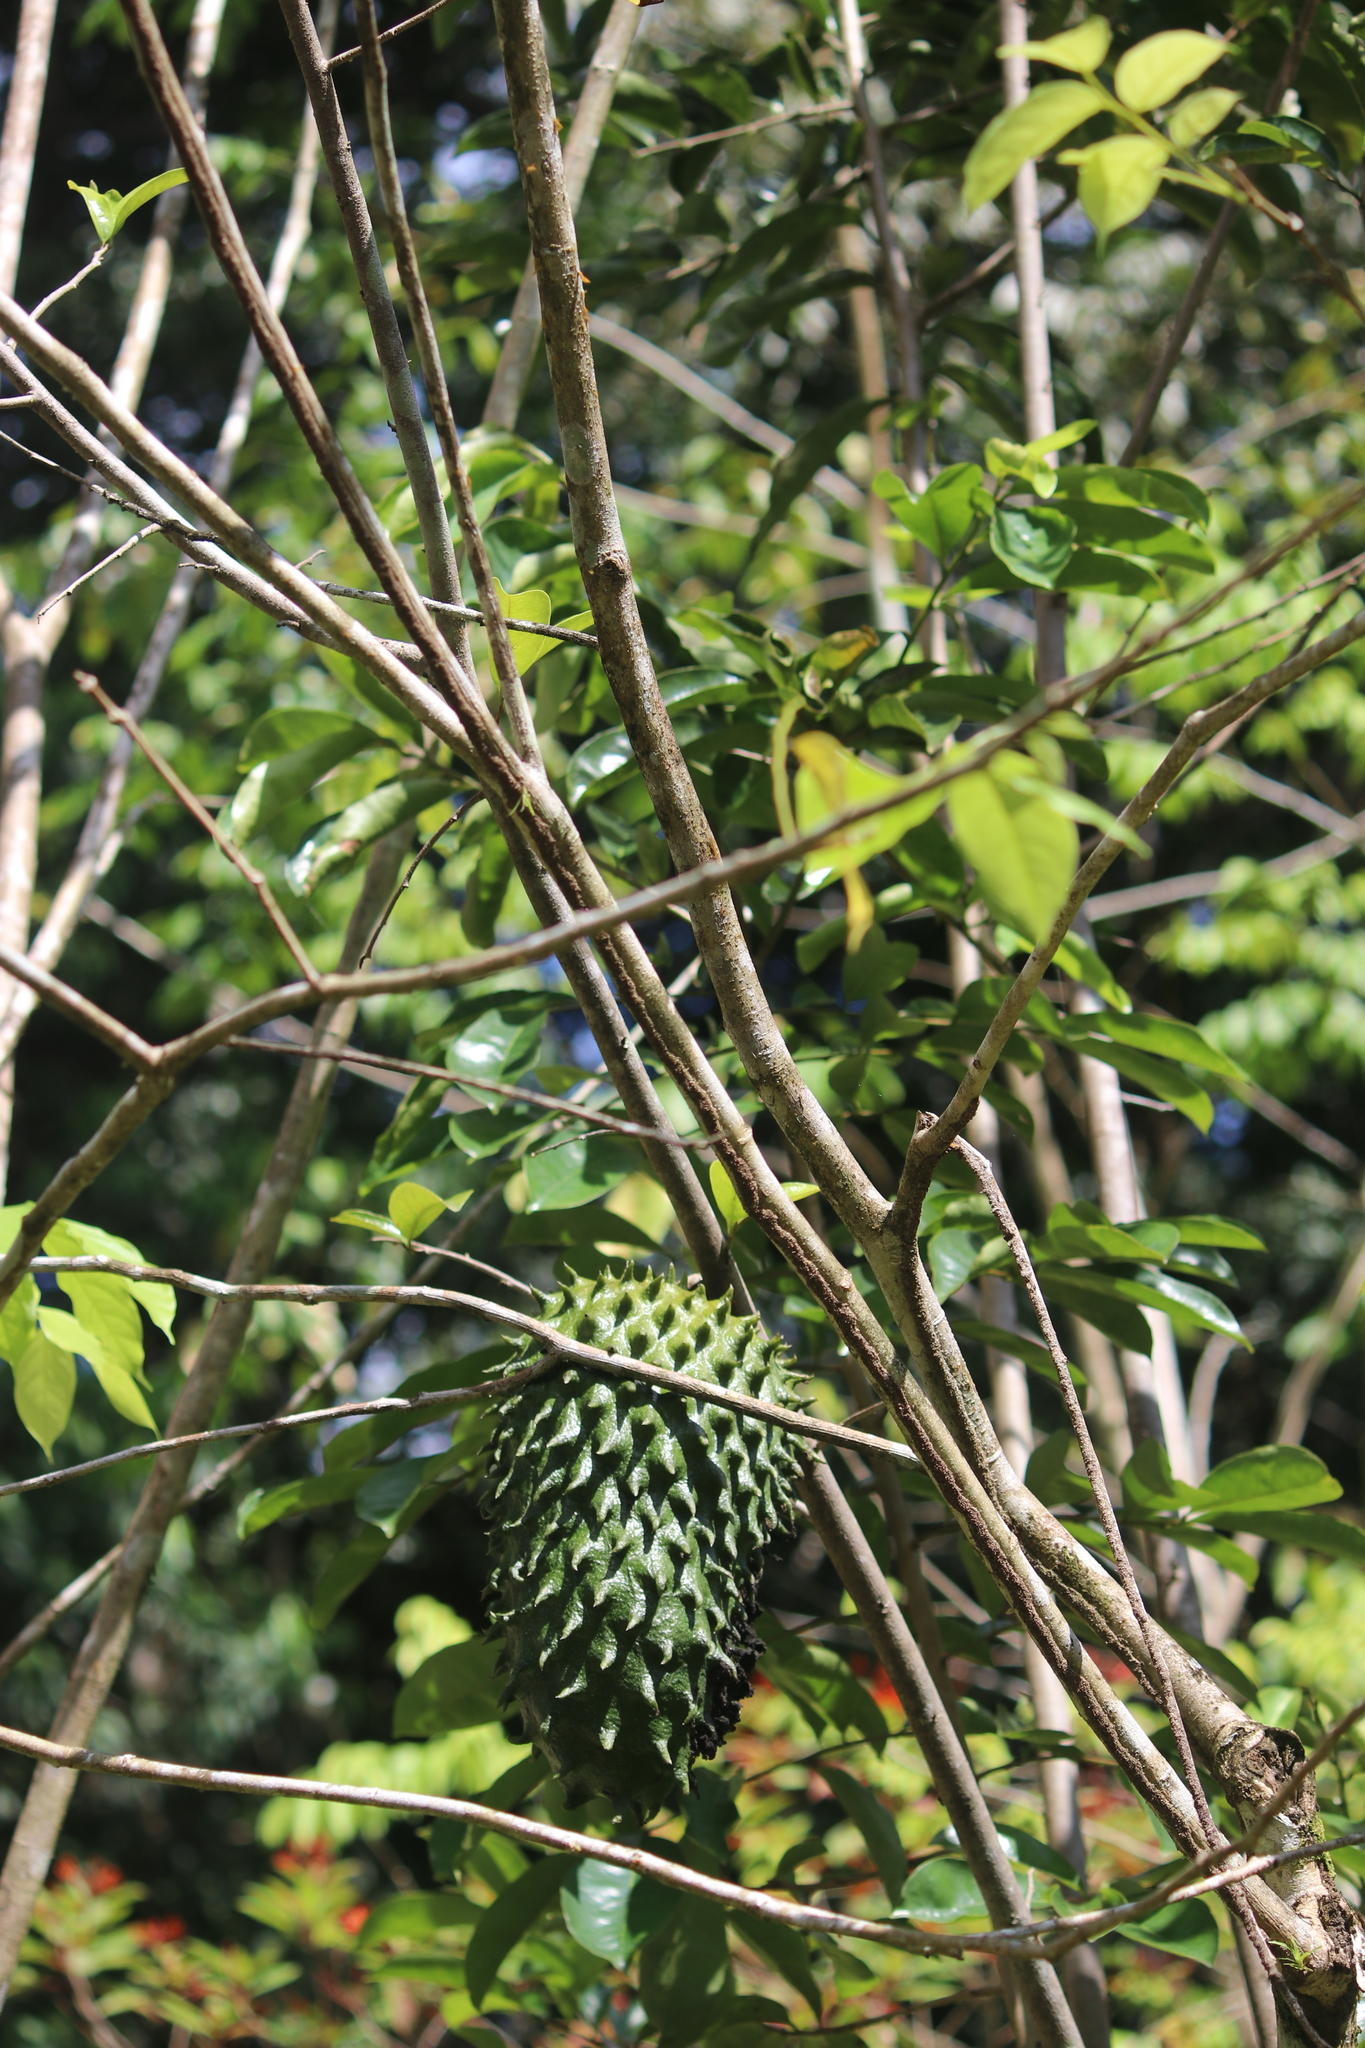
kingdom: Plantae
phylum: Tracheophyta
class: Magnoliopsida
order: Magnoliales
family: Annonaceae
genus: Annona
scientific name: Annona muricata
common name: Soursop
